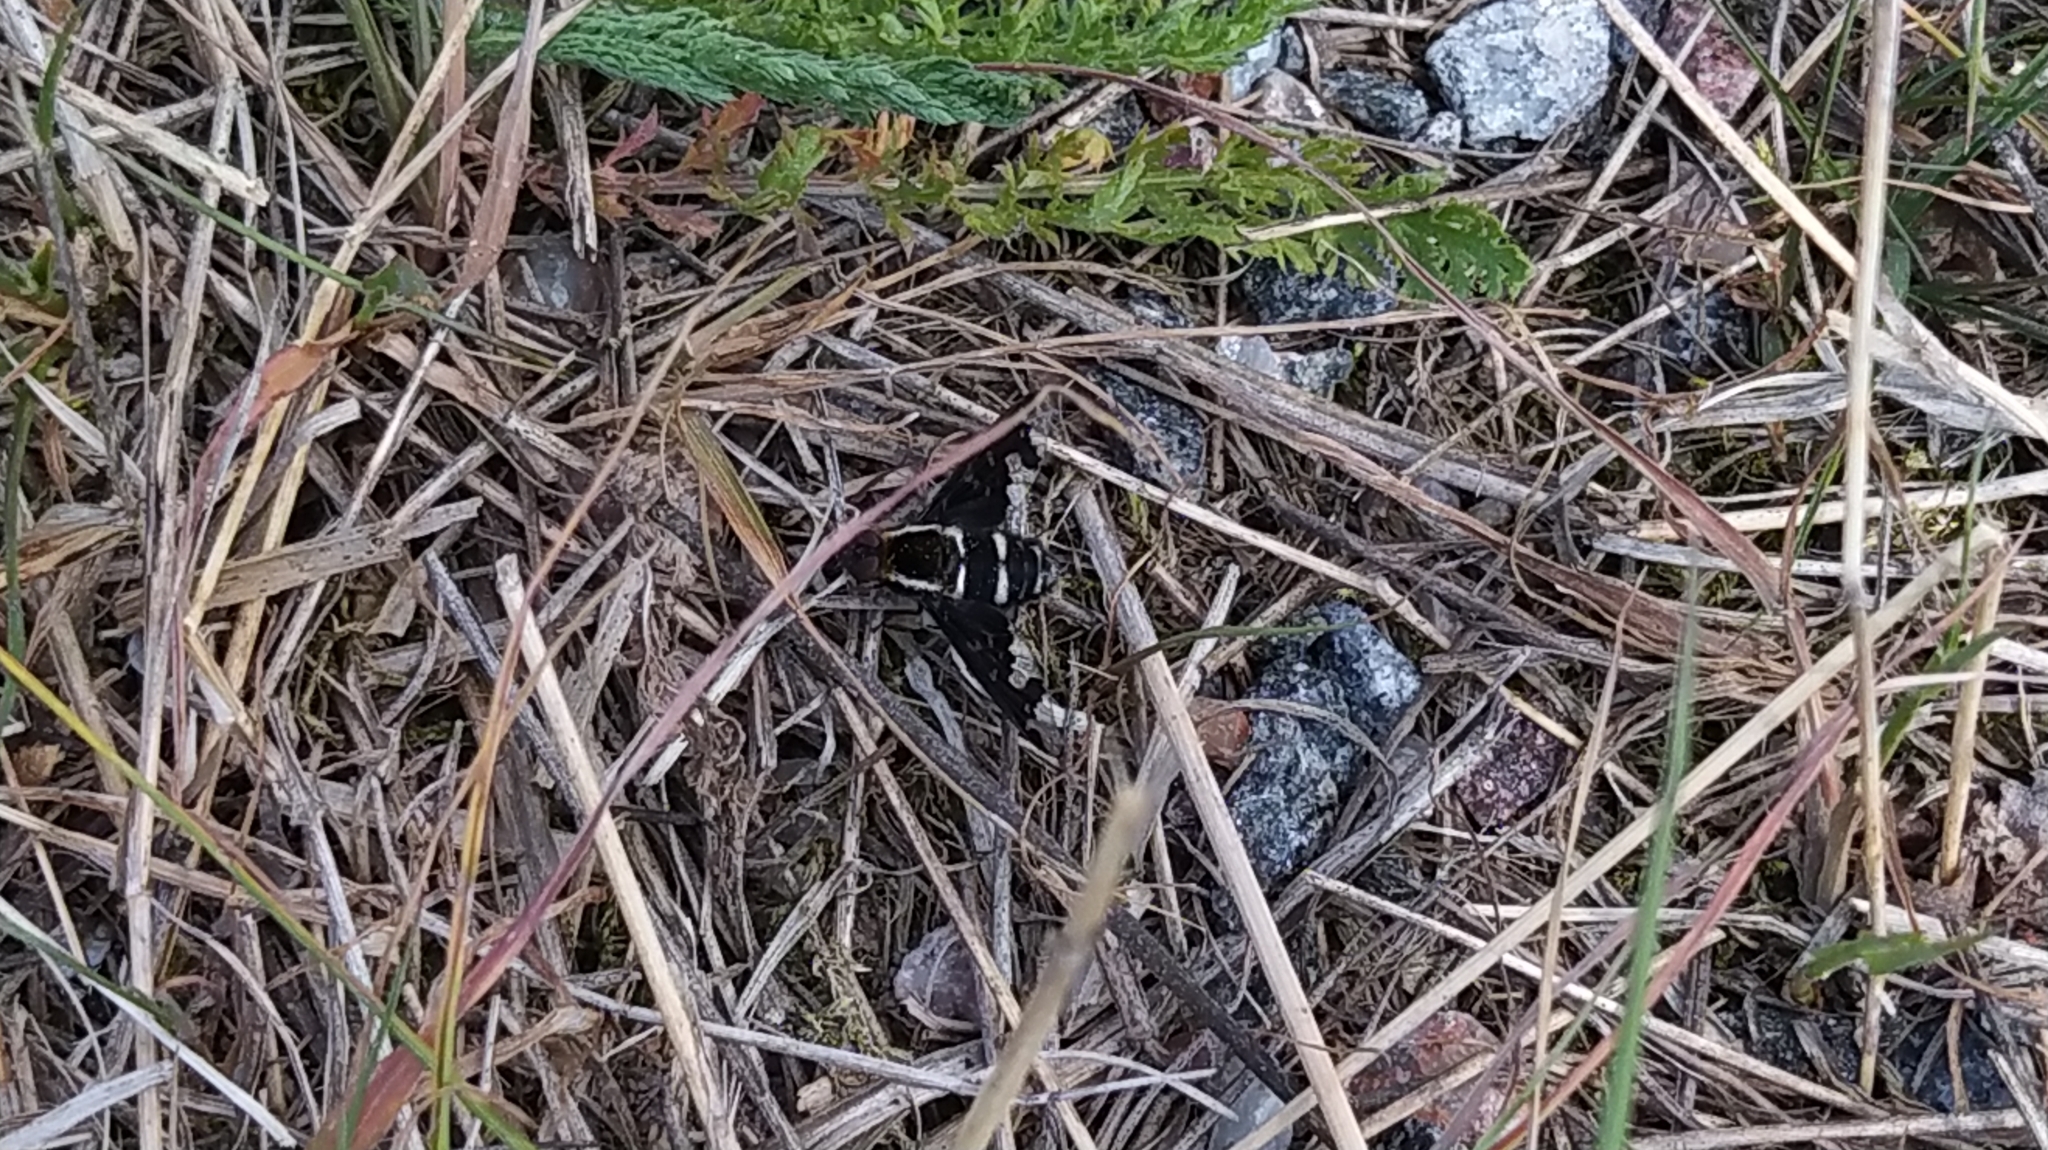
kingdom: Animalia
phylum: Arthropoda
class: Insecta
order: Diptera
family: Bombyliidae
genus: Hemipenthes
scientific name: Hemipenthes maura
